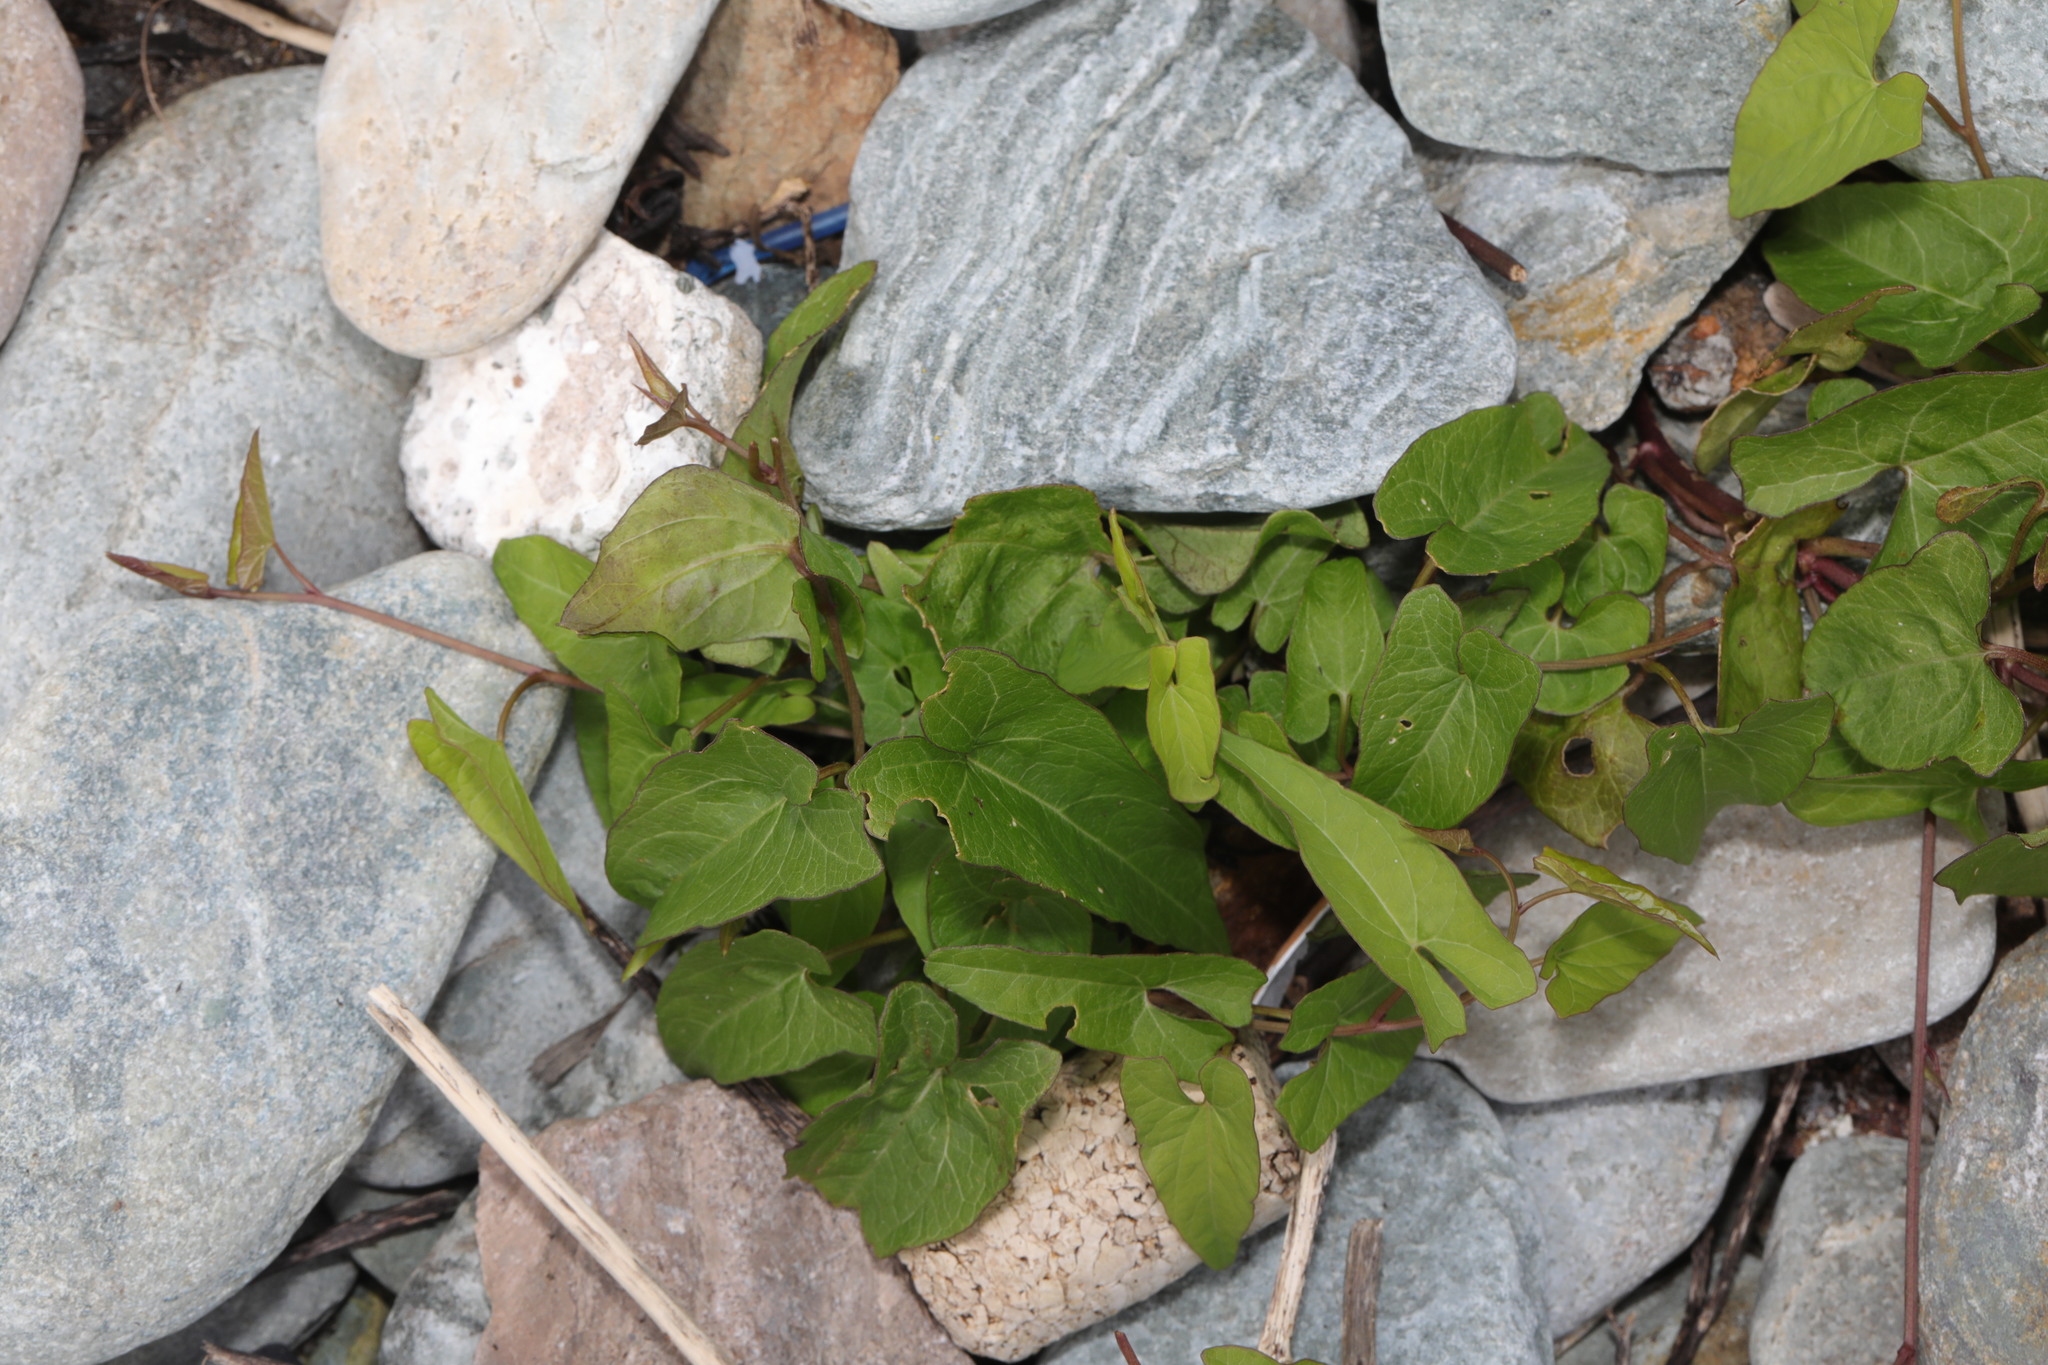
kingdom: Plantae
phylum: Tracheophyta
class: Magnoliopsida
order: Solanales
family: Convolvulaceae
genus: Calystegia
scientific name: Calystegia soldanella
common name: Sea bindweed
